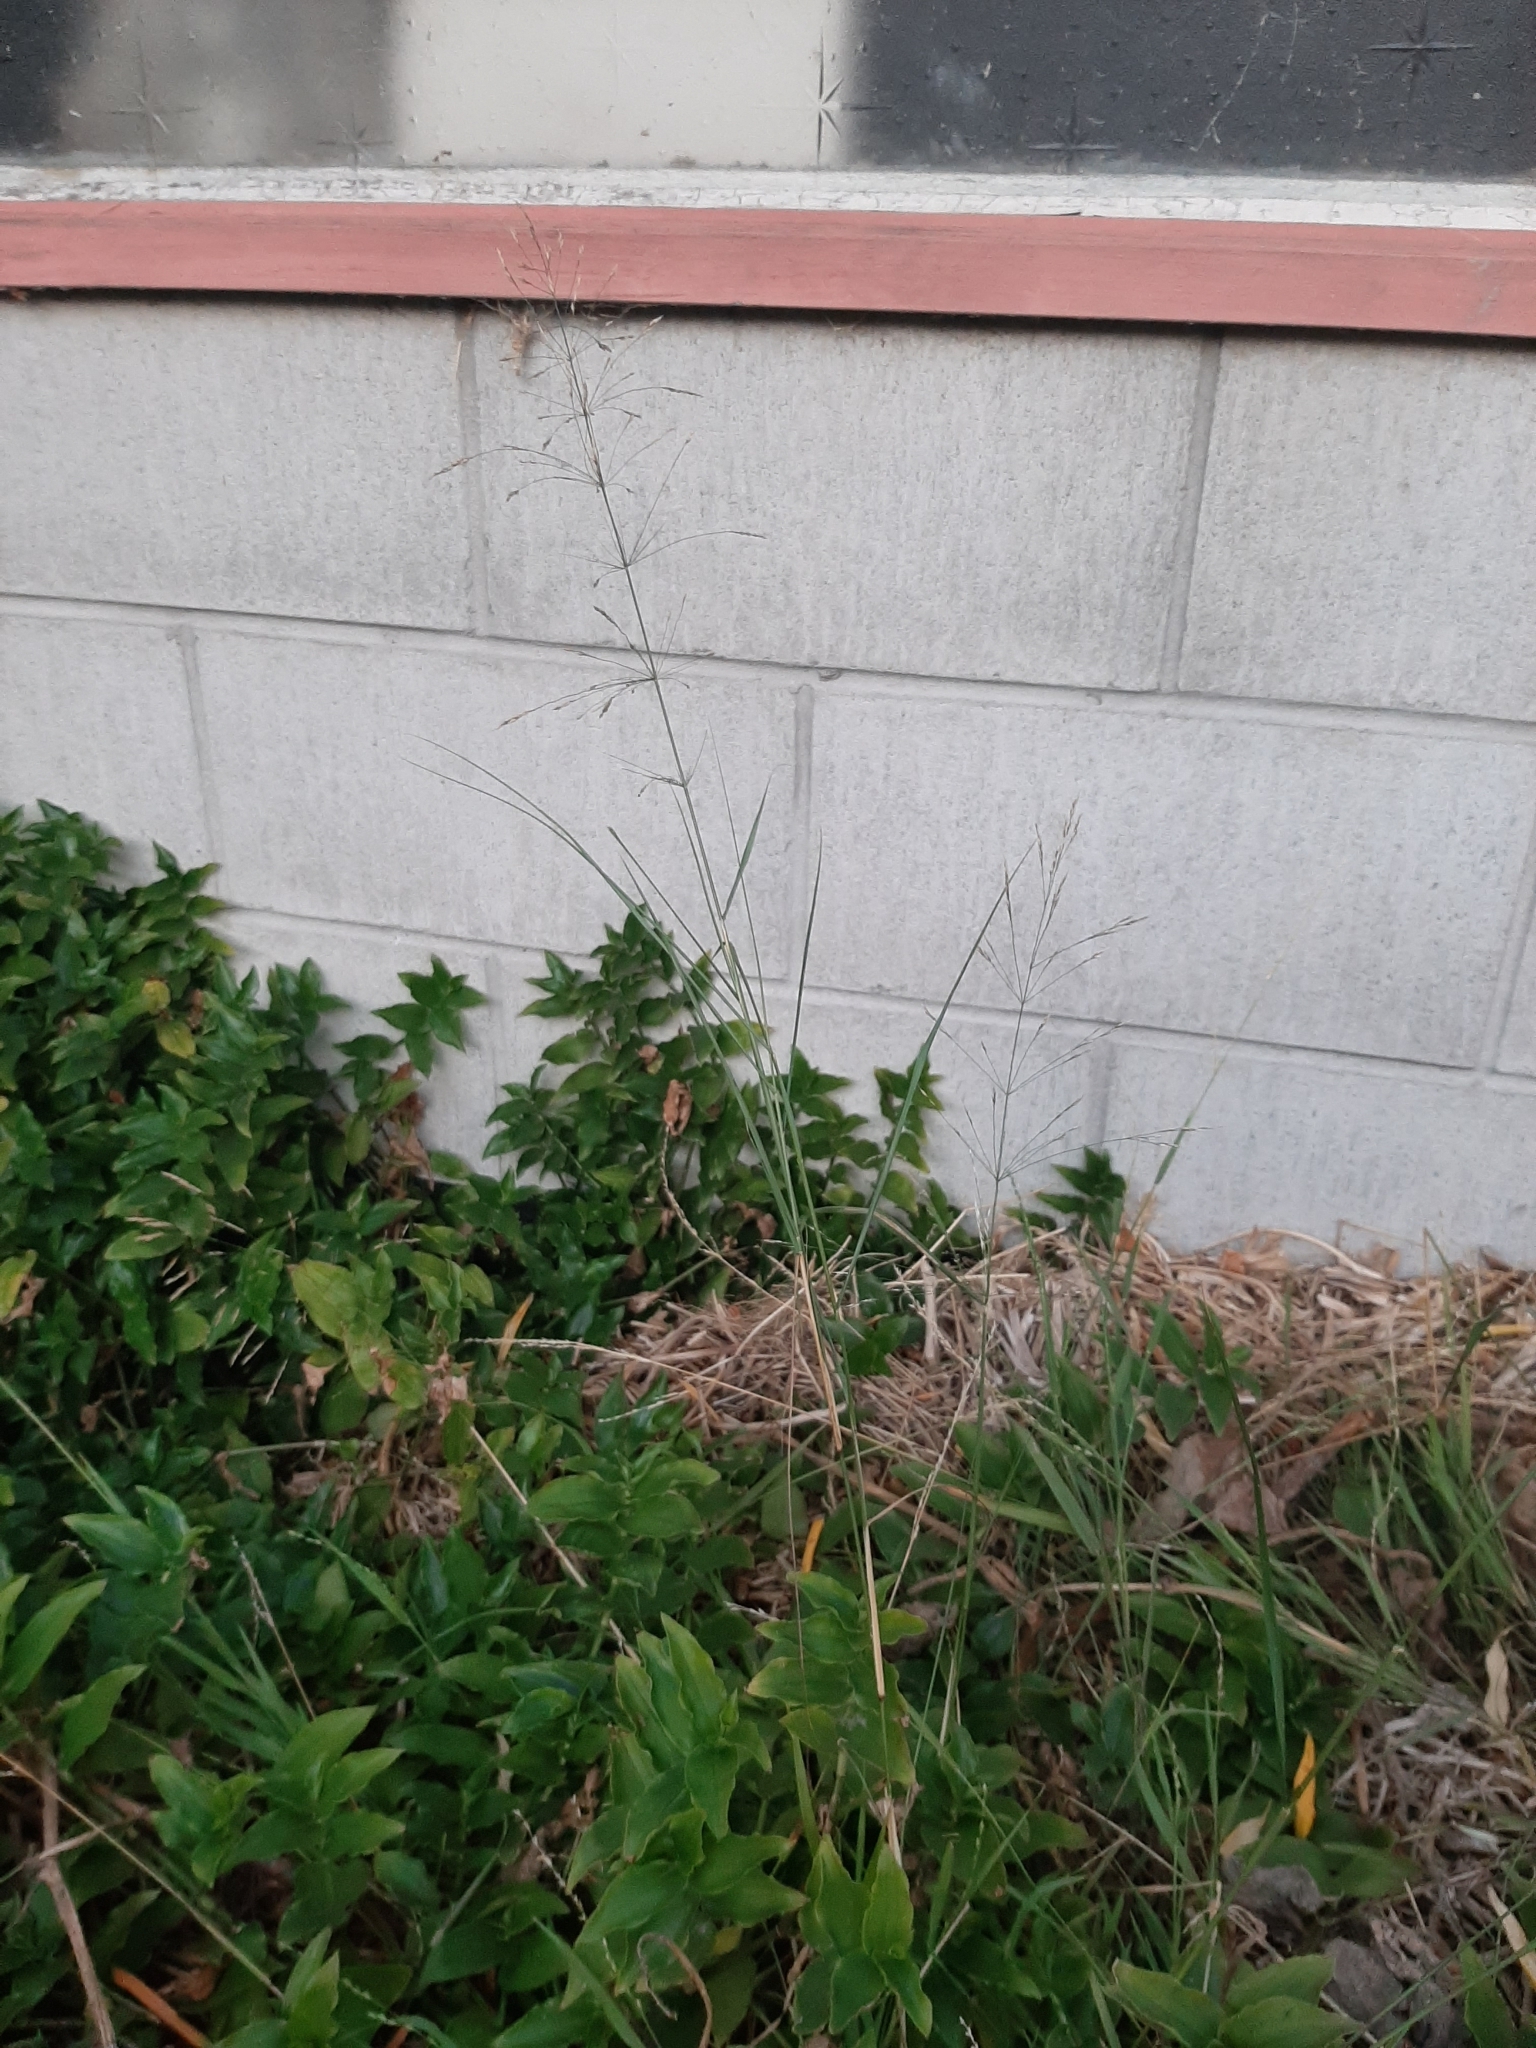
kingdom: Plantae
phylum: Tracheophyta
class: Liliopsida
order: Poales
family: Poaceae
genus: Oloptum
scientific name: Oloptum miliaceum
